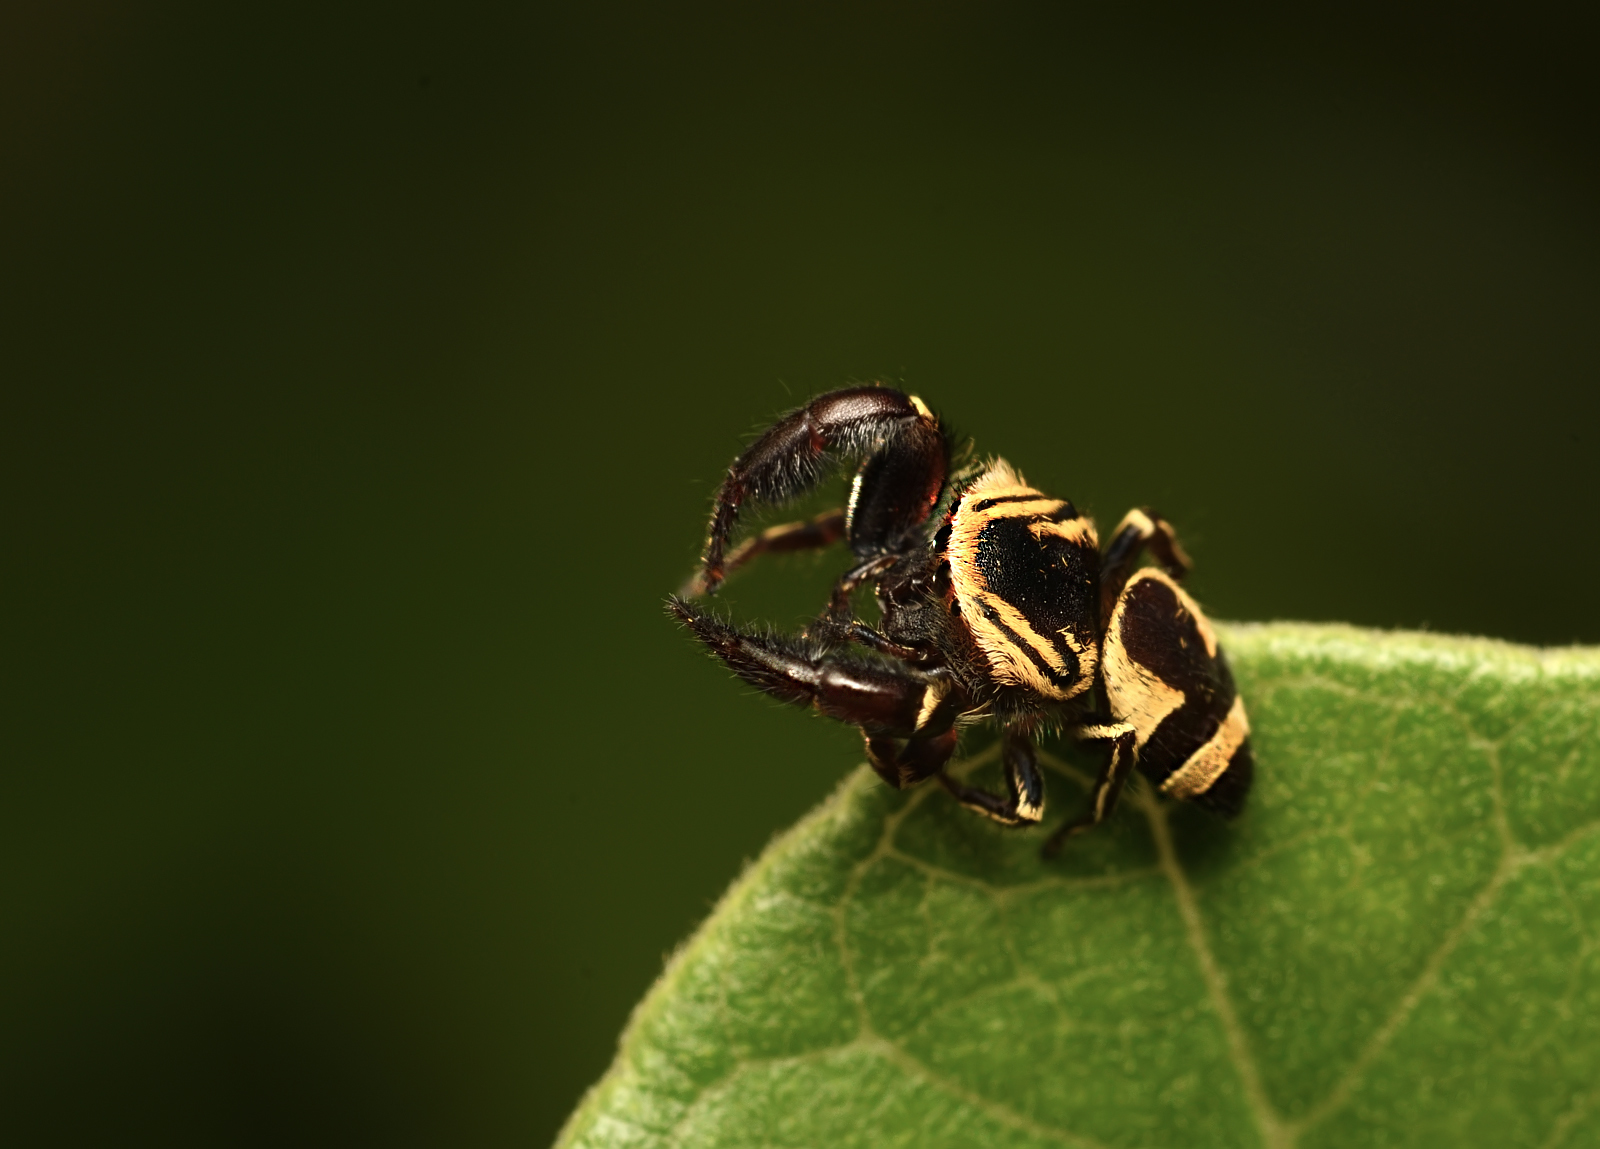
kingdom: Animalia
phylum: Arthropoda
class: Arachnida
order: Araneae
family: Salticidae
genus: Rhene
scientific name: Rhene flavicomans
